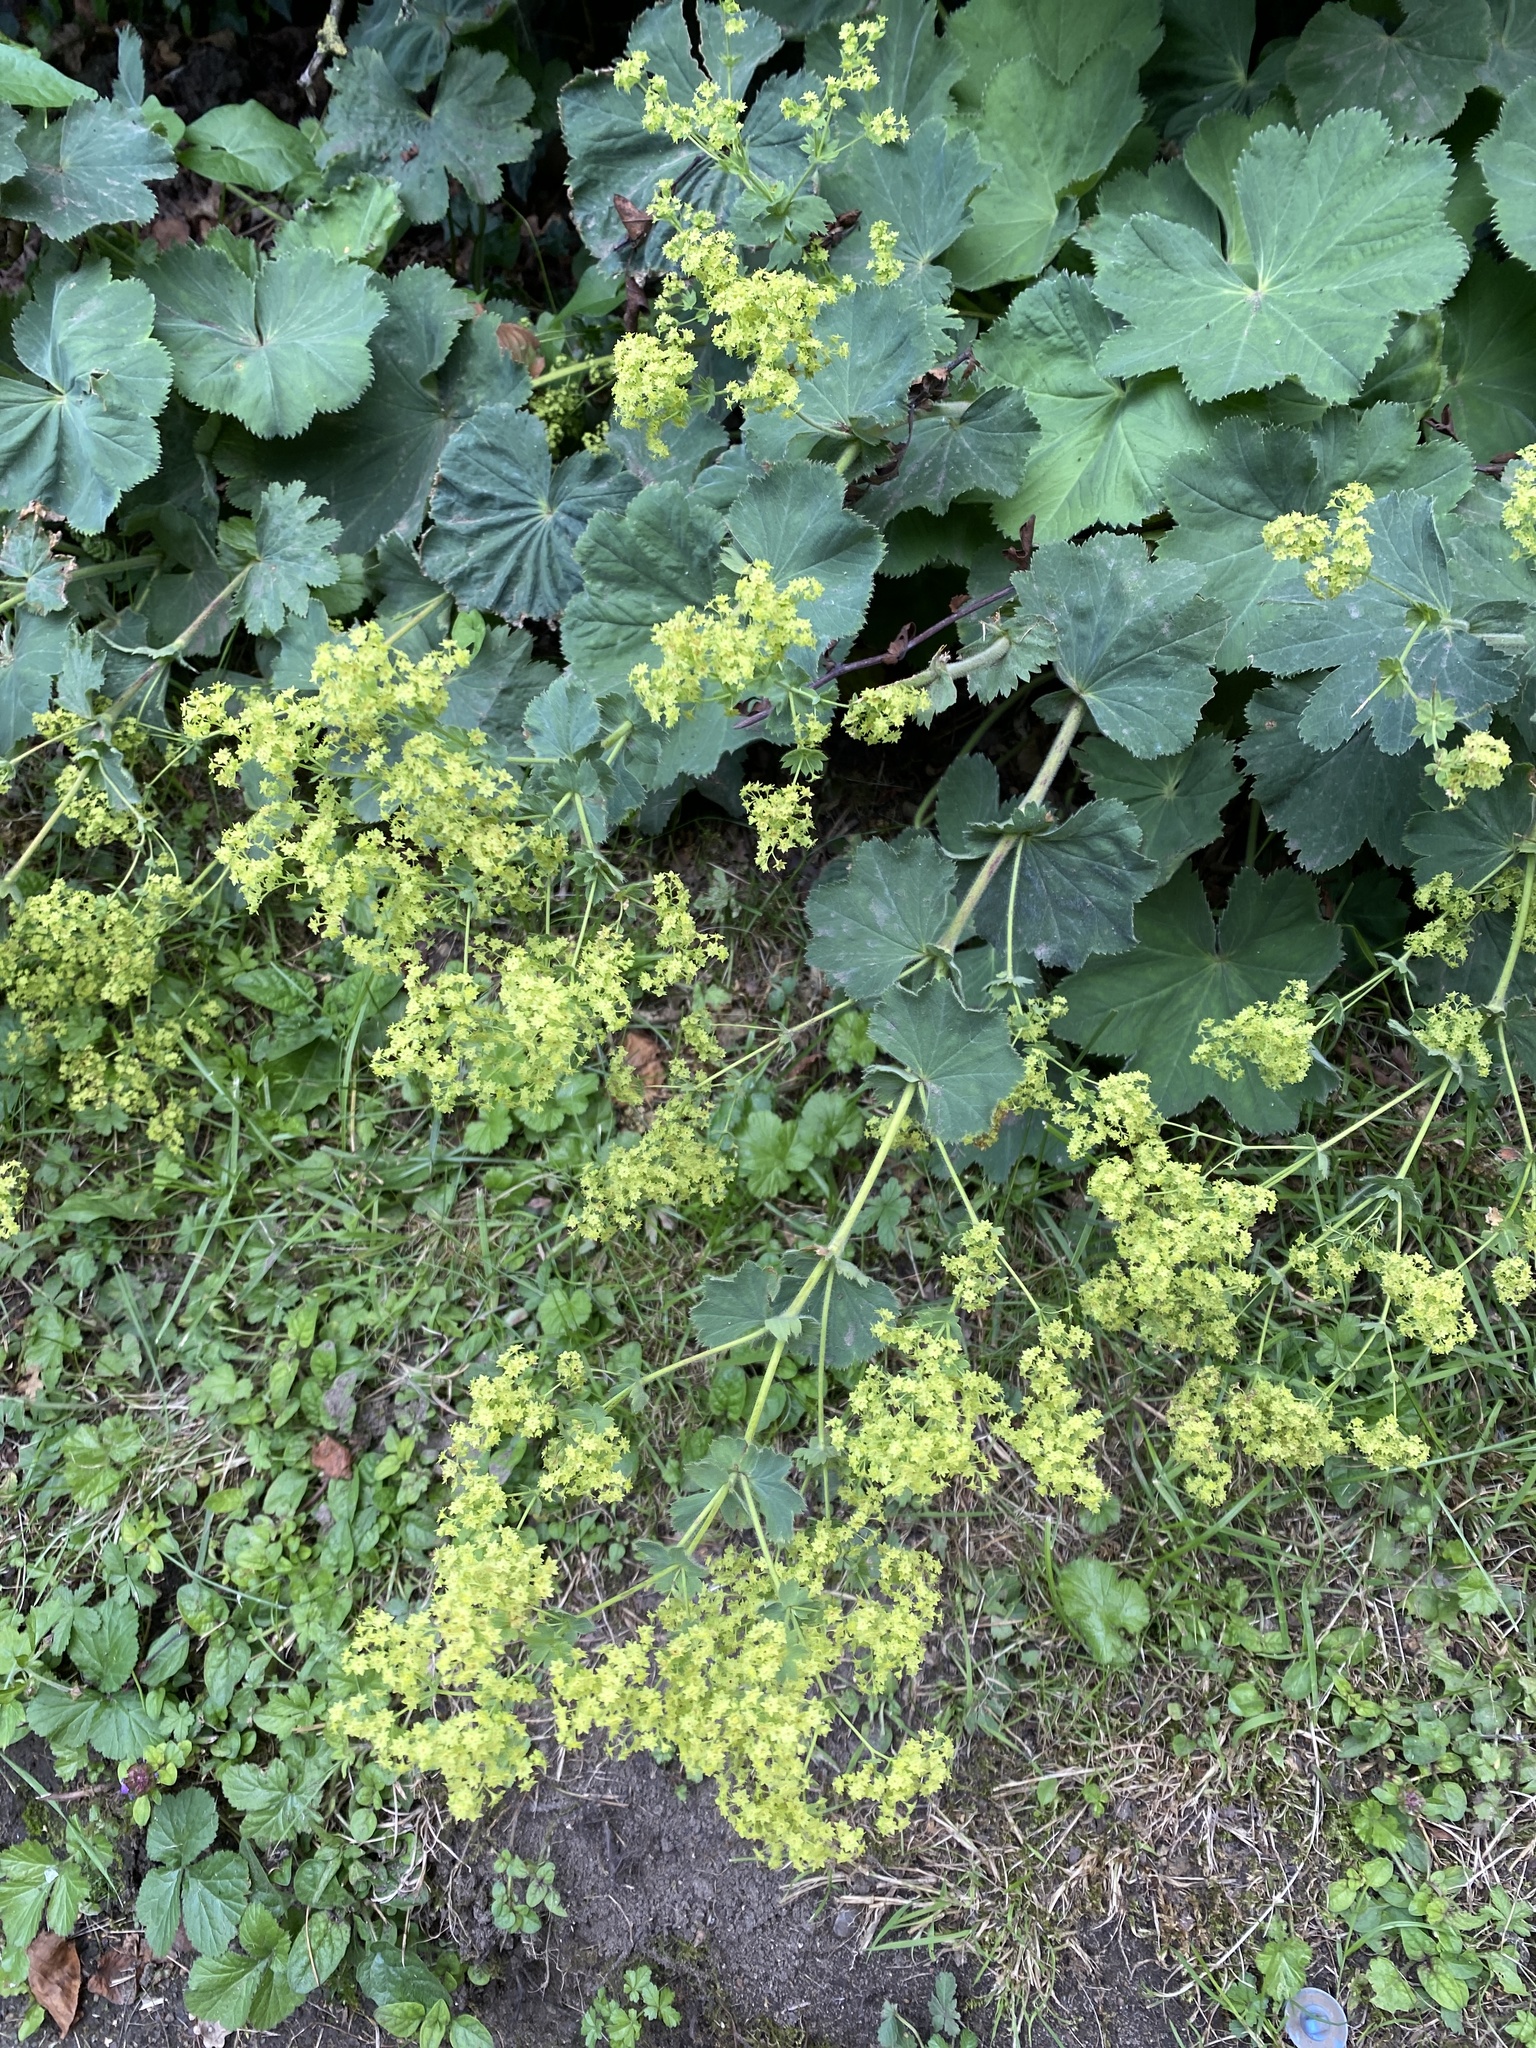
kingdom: Plantae
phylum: Tracheophyta
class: Magnoliopsida
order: Rosales
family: Rosaceae
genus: Alchemilla
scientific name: Alchemilla mollis
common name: Lady's-mantle
